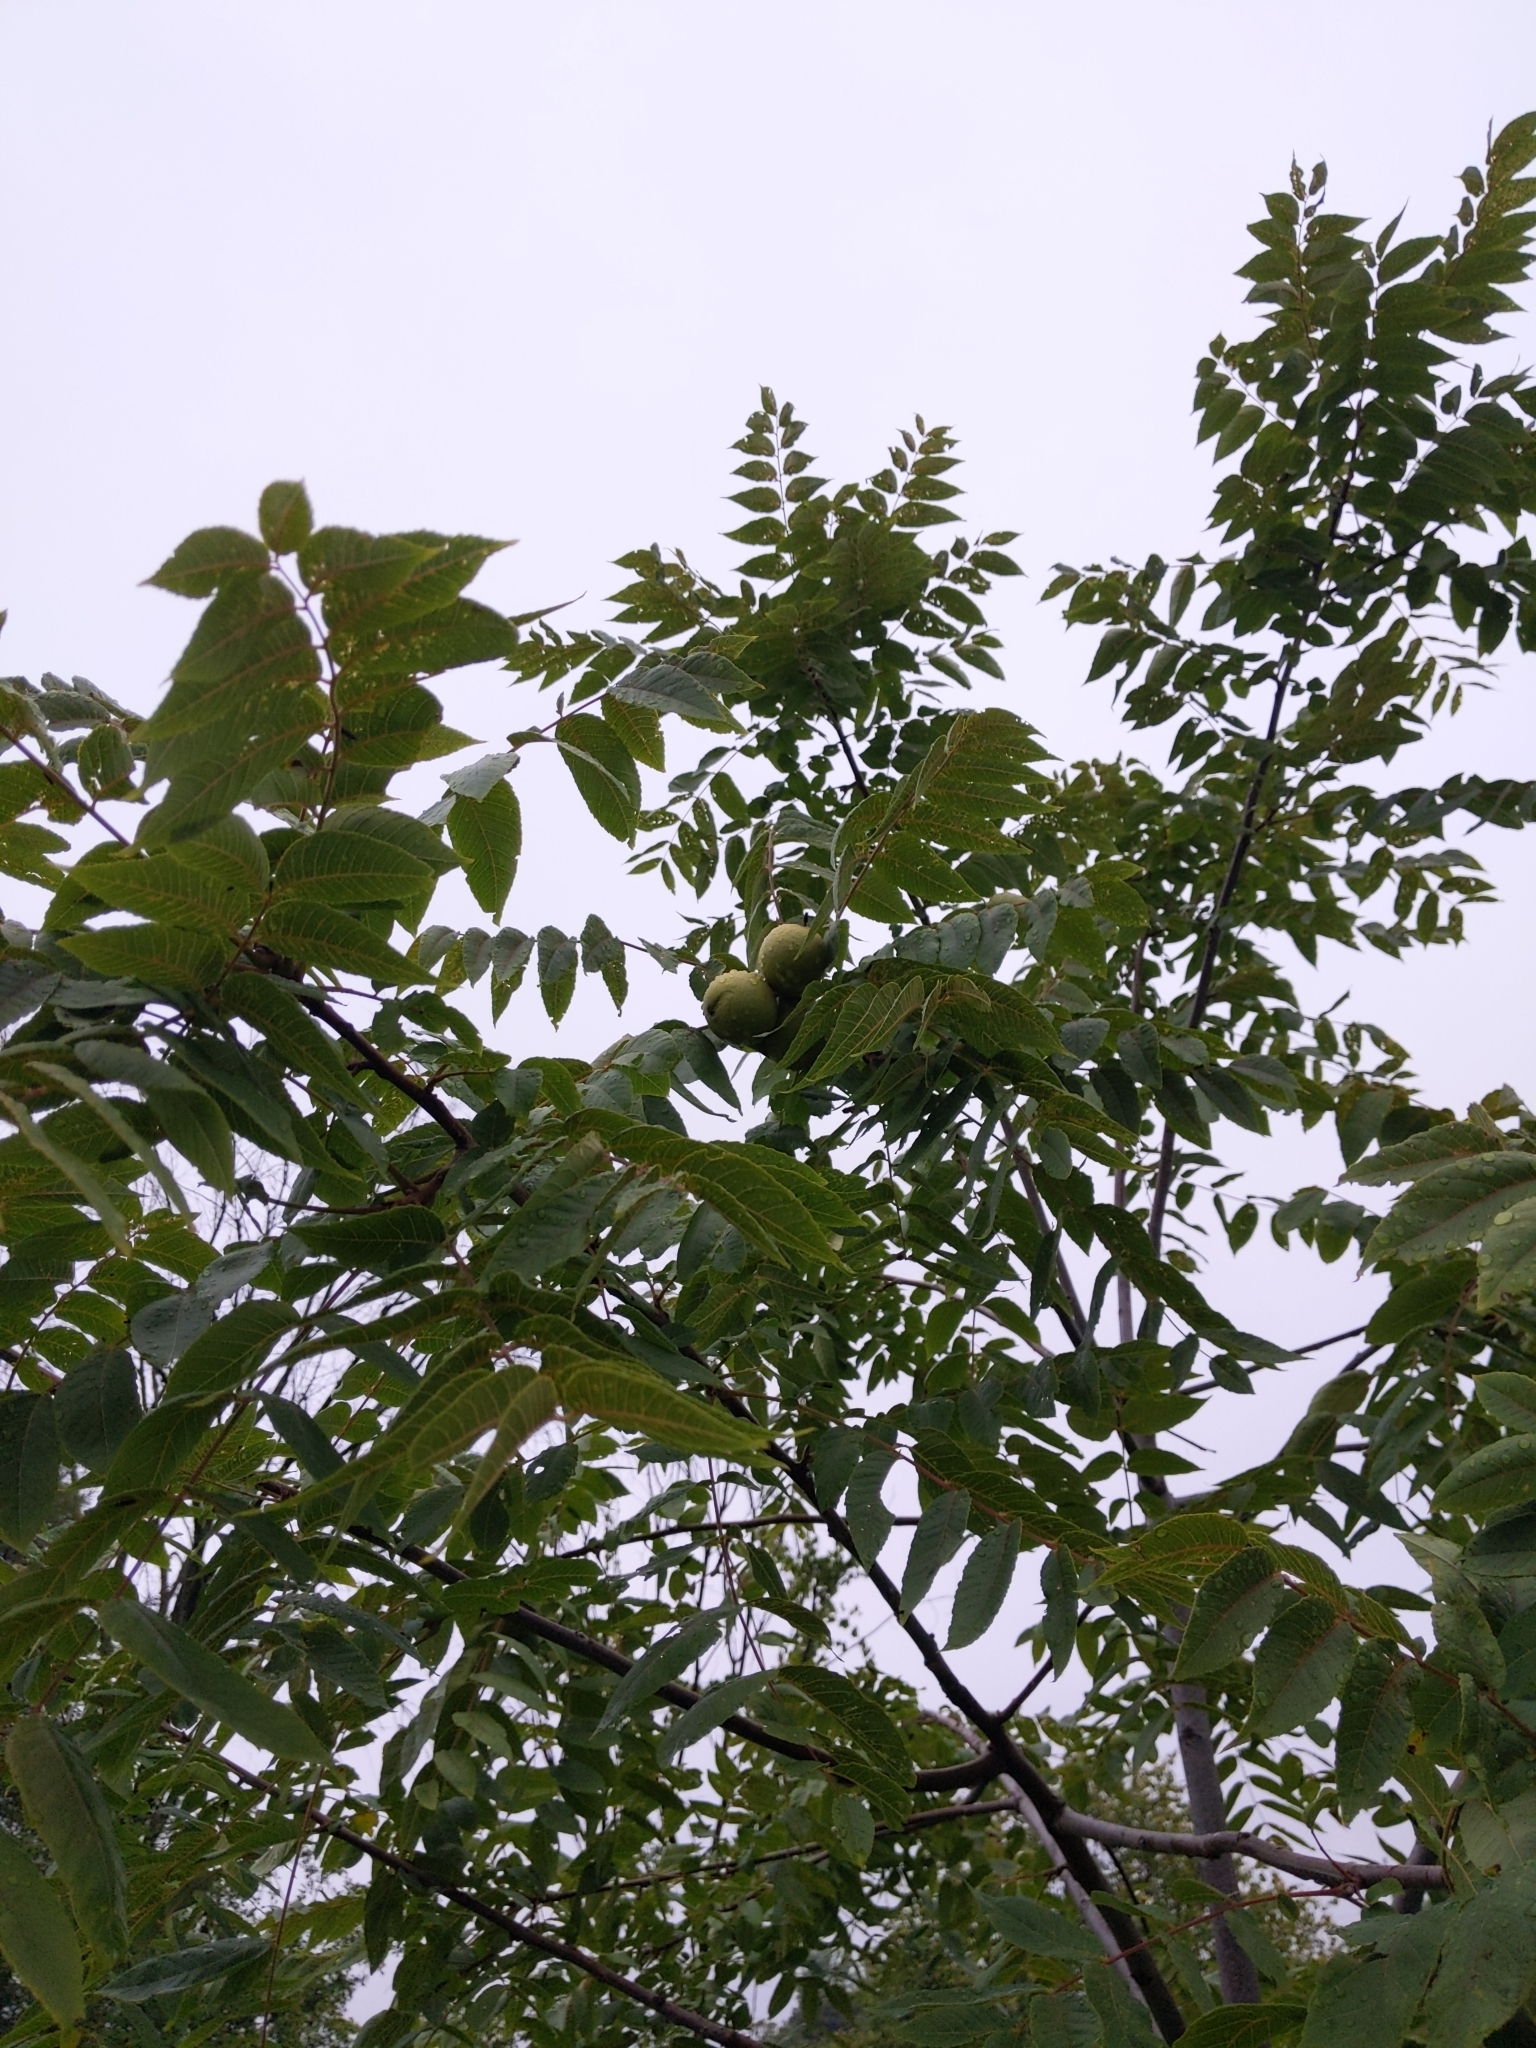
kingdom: Plantae
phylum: Tracheophyta
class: Magnoliopsida
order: Fagales
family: Juglandaceae
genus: Juglans
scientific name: Juglans nigra
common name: Black walnut
